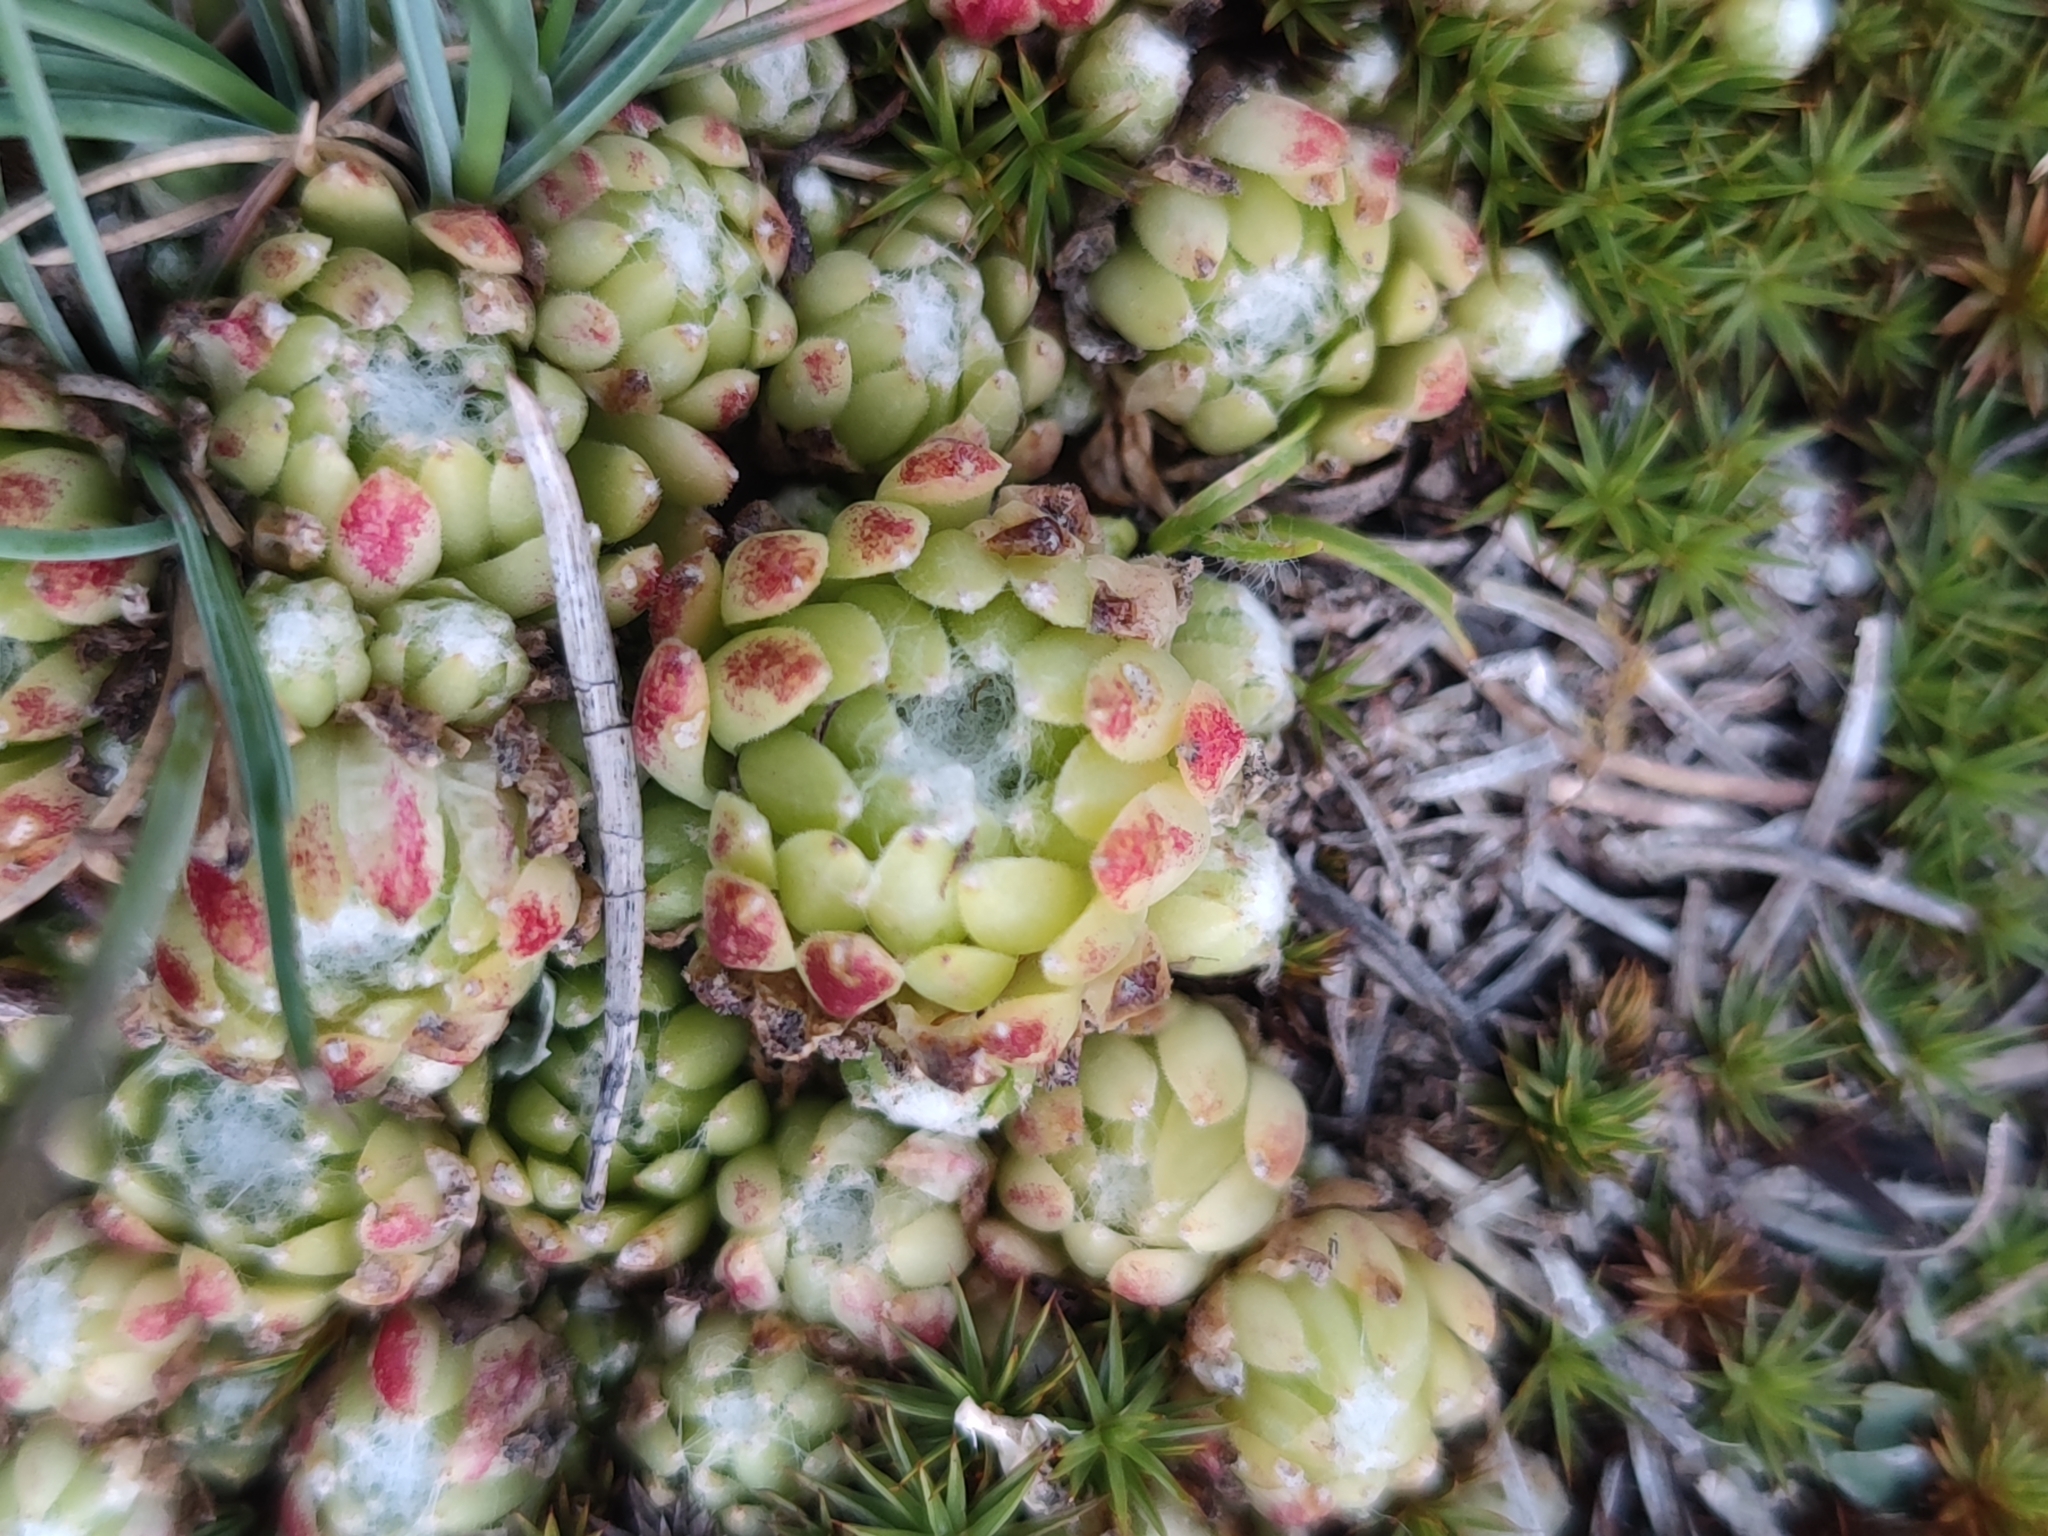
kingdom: Plantae
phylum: Tracheophyta
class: Magnoliopsida
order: Saxifragales
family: Crassulaceae
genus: Sempervivum
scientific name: Sempervivum arachnoideum
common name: Cobweb house-leek
